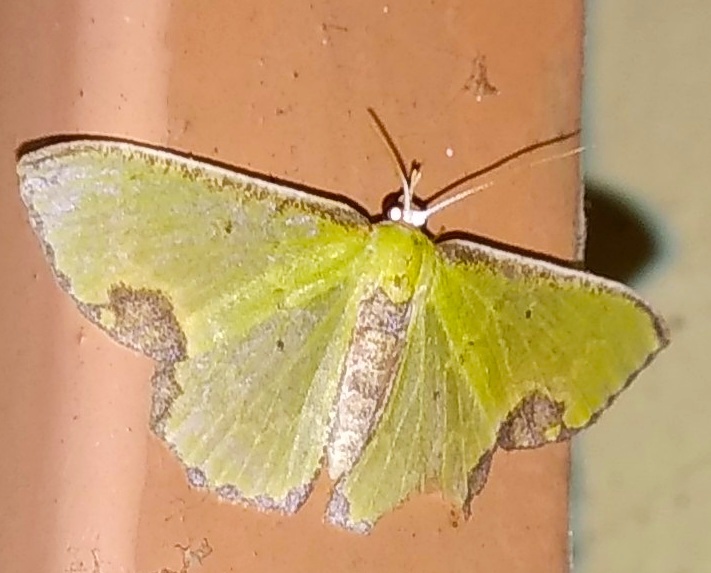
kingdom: Animalia
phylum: Arthropoda
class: Insecta
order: Lepidoptera
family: Geometridae
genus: Spaniocentra
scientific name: Spaniocentra pannosa
